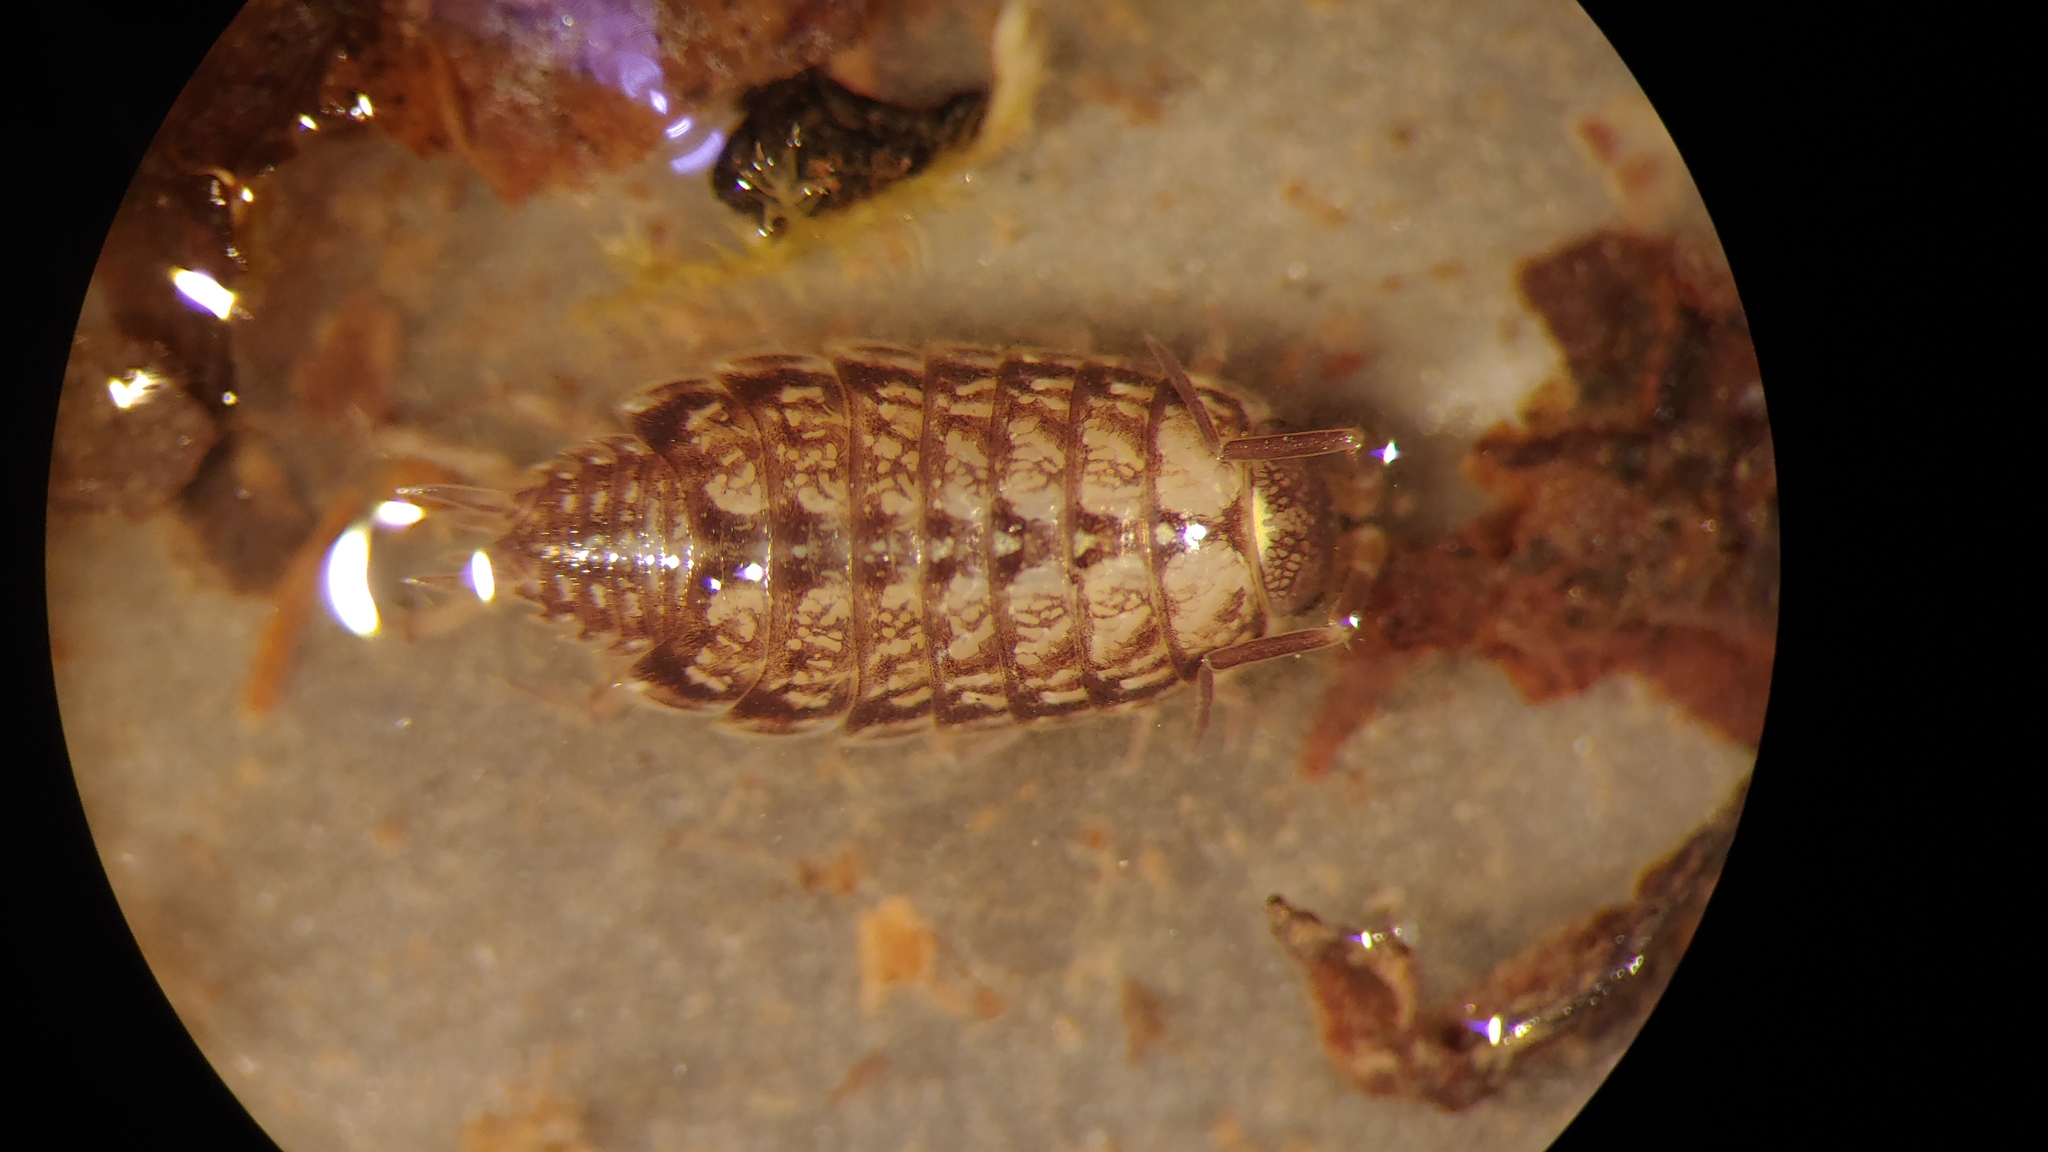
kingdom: Animalia
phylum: Arthropoda
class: Malacostraca
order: Isopoda
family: Philosciidae
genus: Philoscia
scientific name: Philoscia muscorum
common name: Common striped woodlouse
